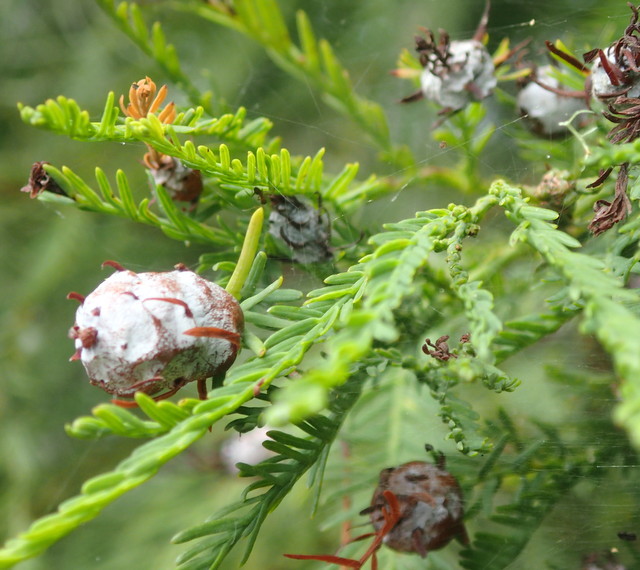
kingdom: Animalia
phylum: Arthropoda
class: Insecta
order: Diptera
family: Cecidomyiidae
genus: Taxodiomyia
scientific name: Taxodiomyia cupressiananassa
